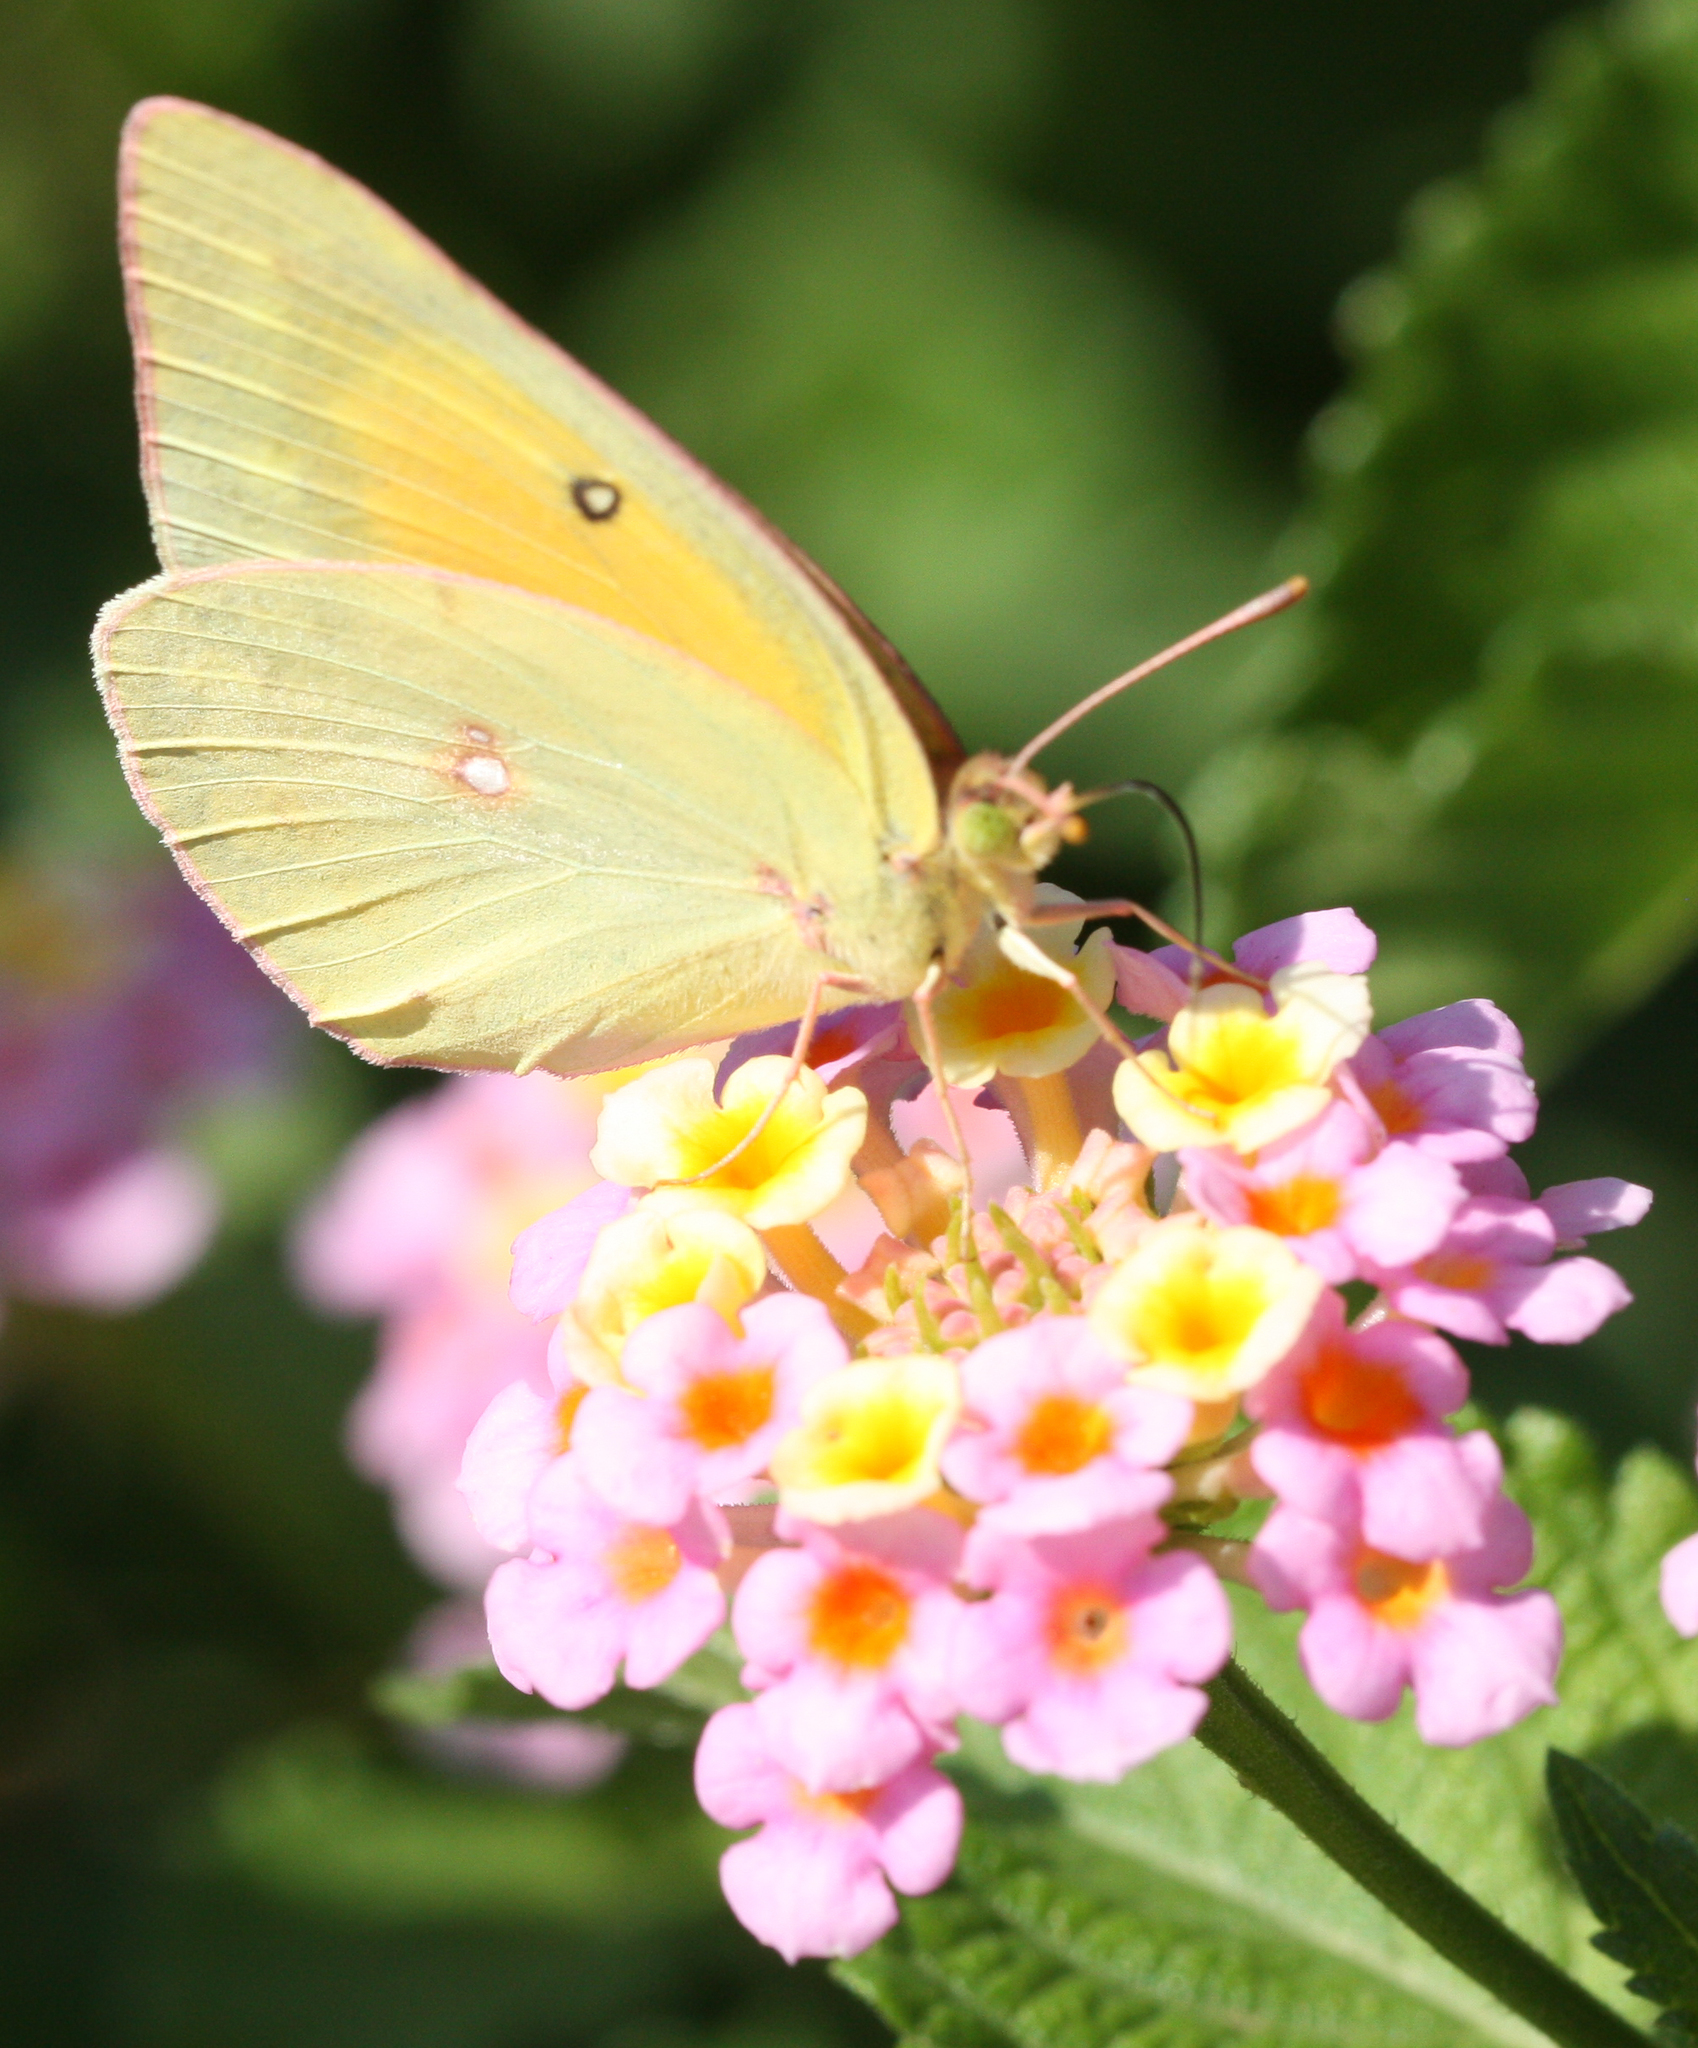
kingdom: Animalia
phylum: Arthropoda
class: Insecta
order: Lepidoptera
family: Pieridae
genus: Colias
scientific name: Colias eurytheme
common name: Alfalfa butterfly
